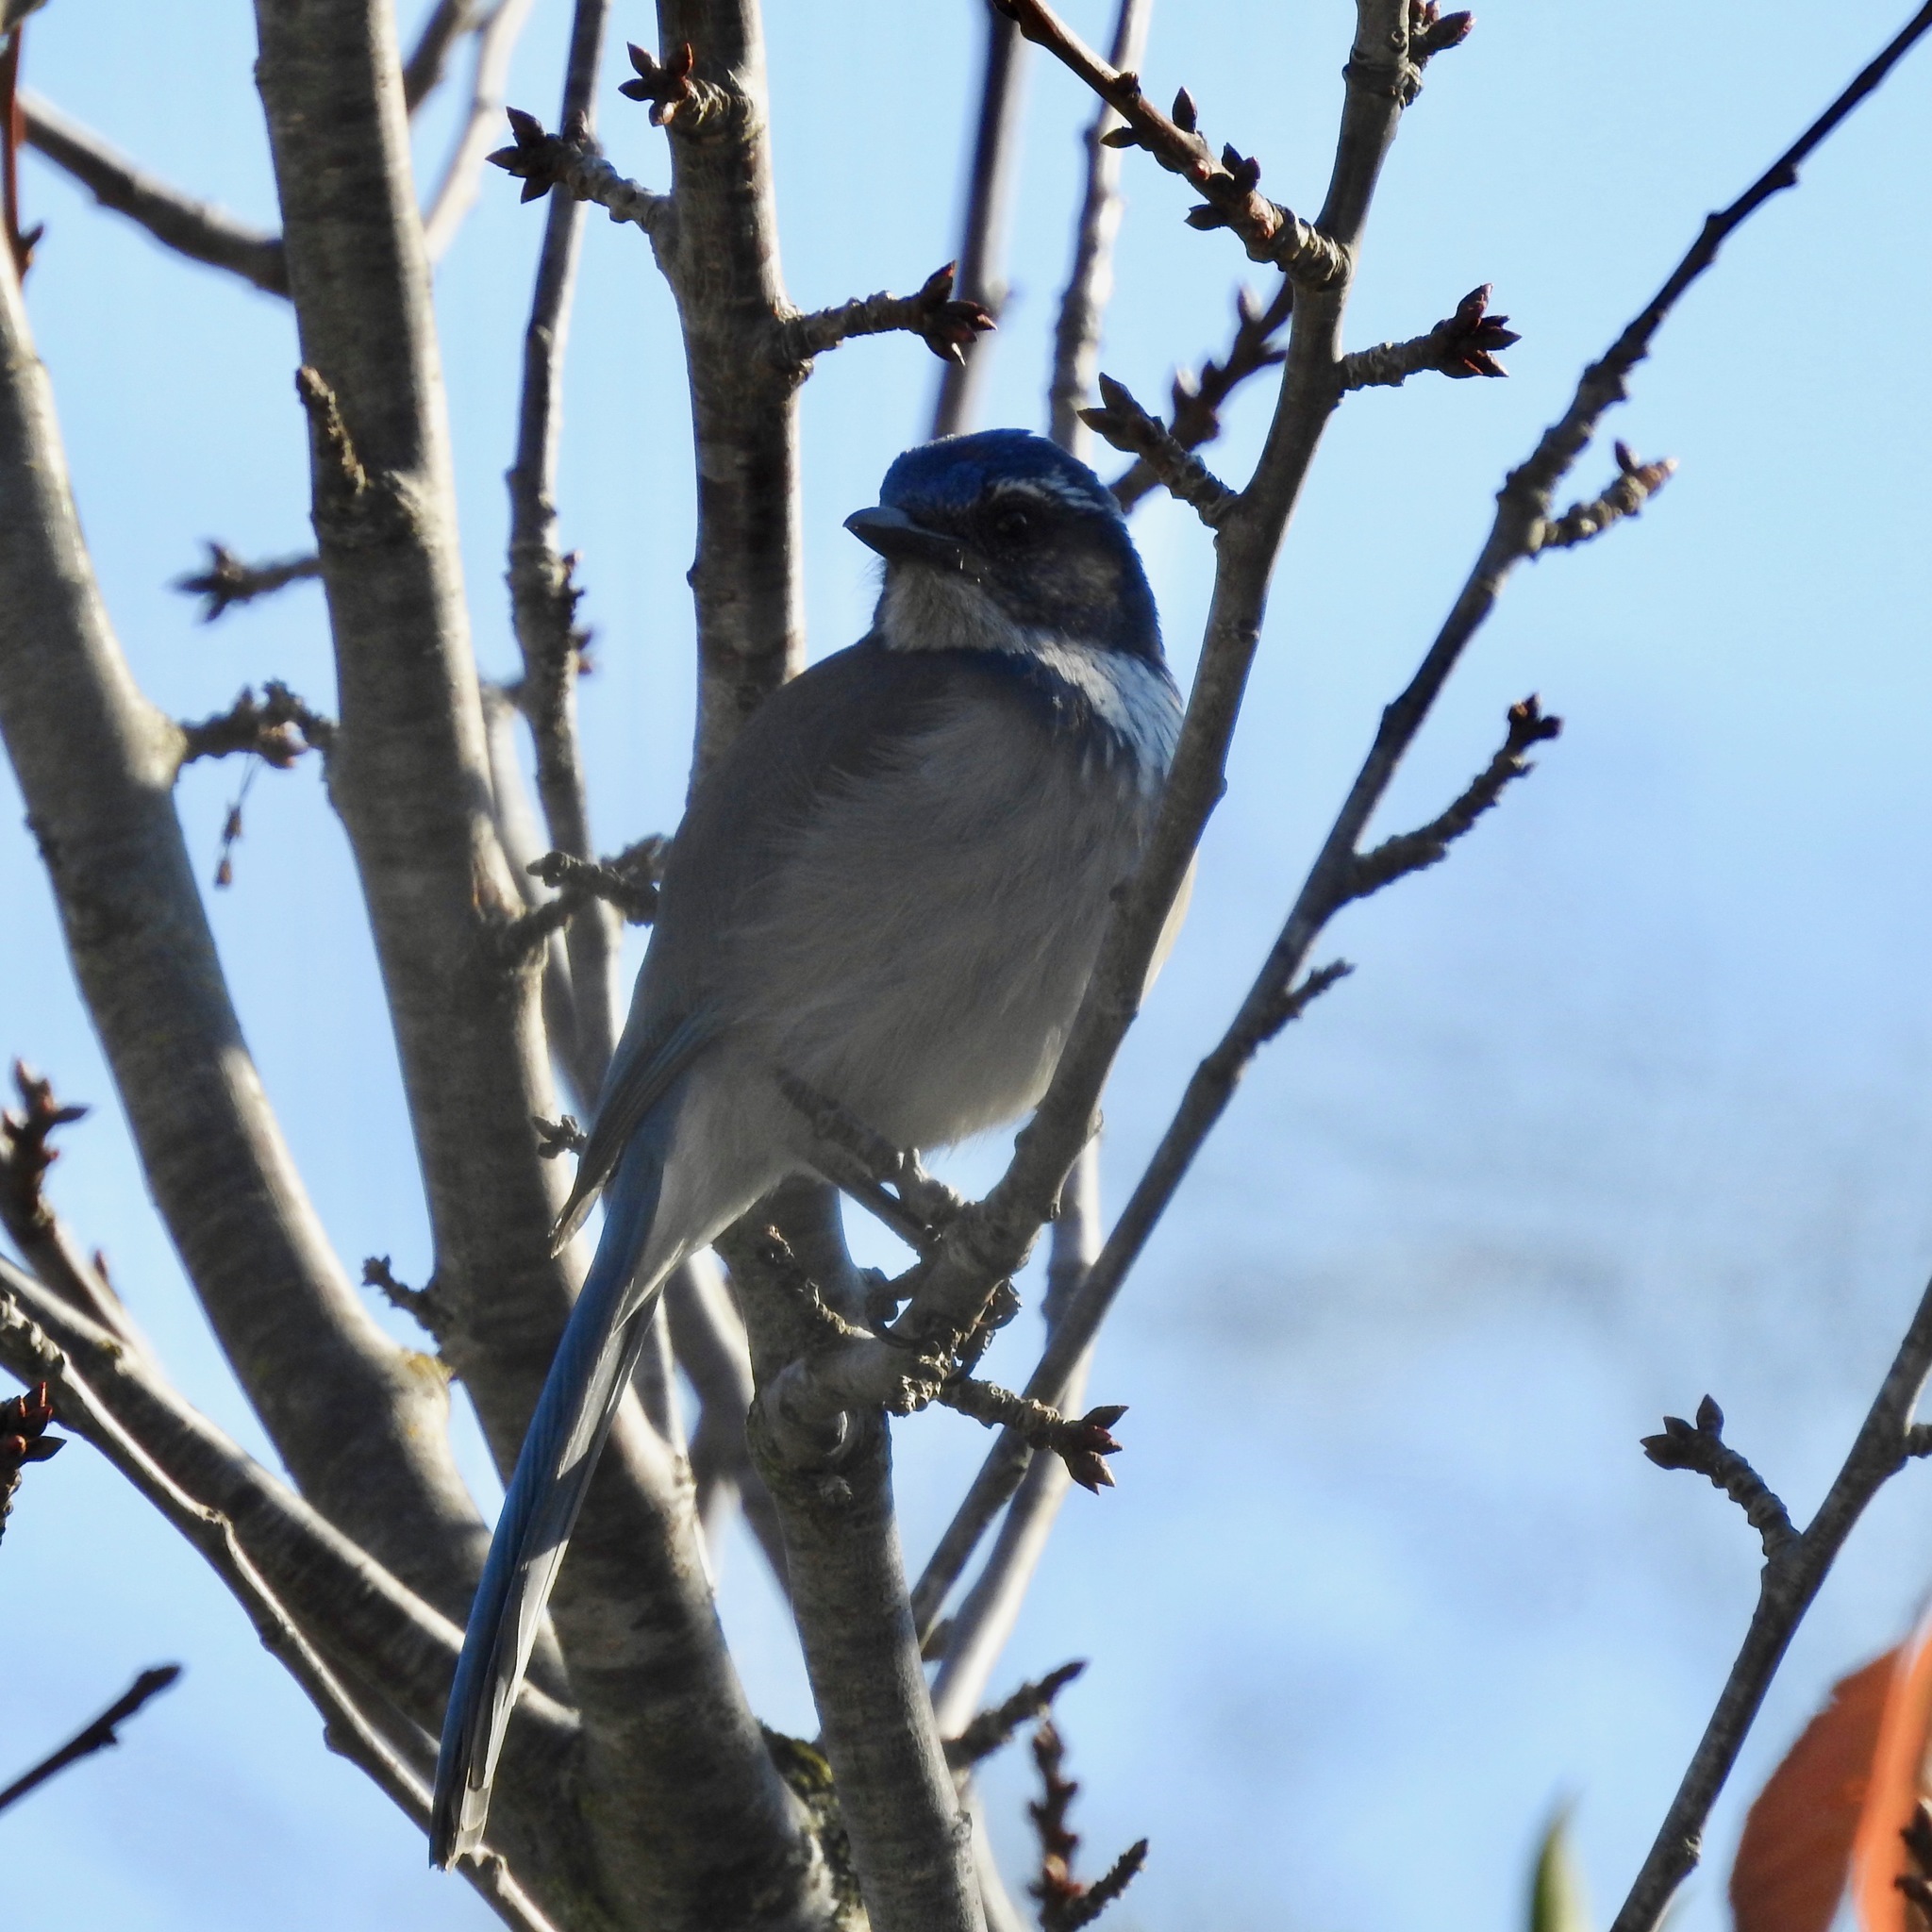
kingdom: Animalia
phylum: Chordata
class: Aves
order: Passeriformes
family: Corvidae
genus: Aphelocoma
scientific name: Aphelocoma californica
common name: California scrub-jay
